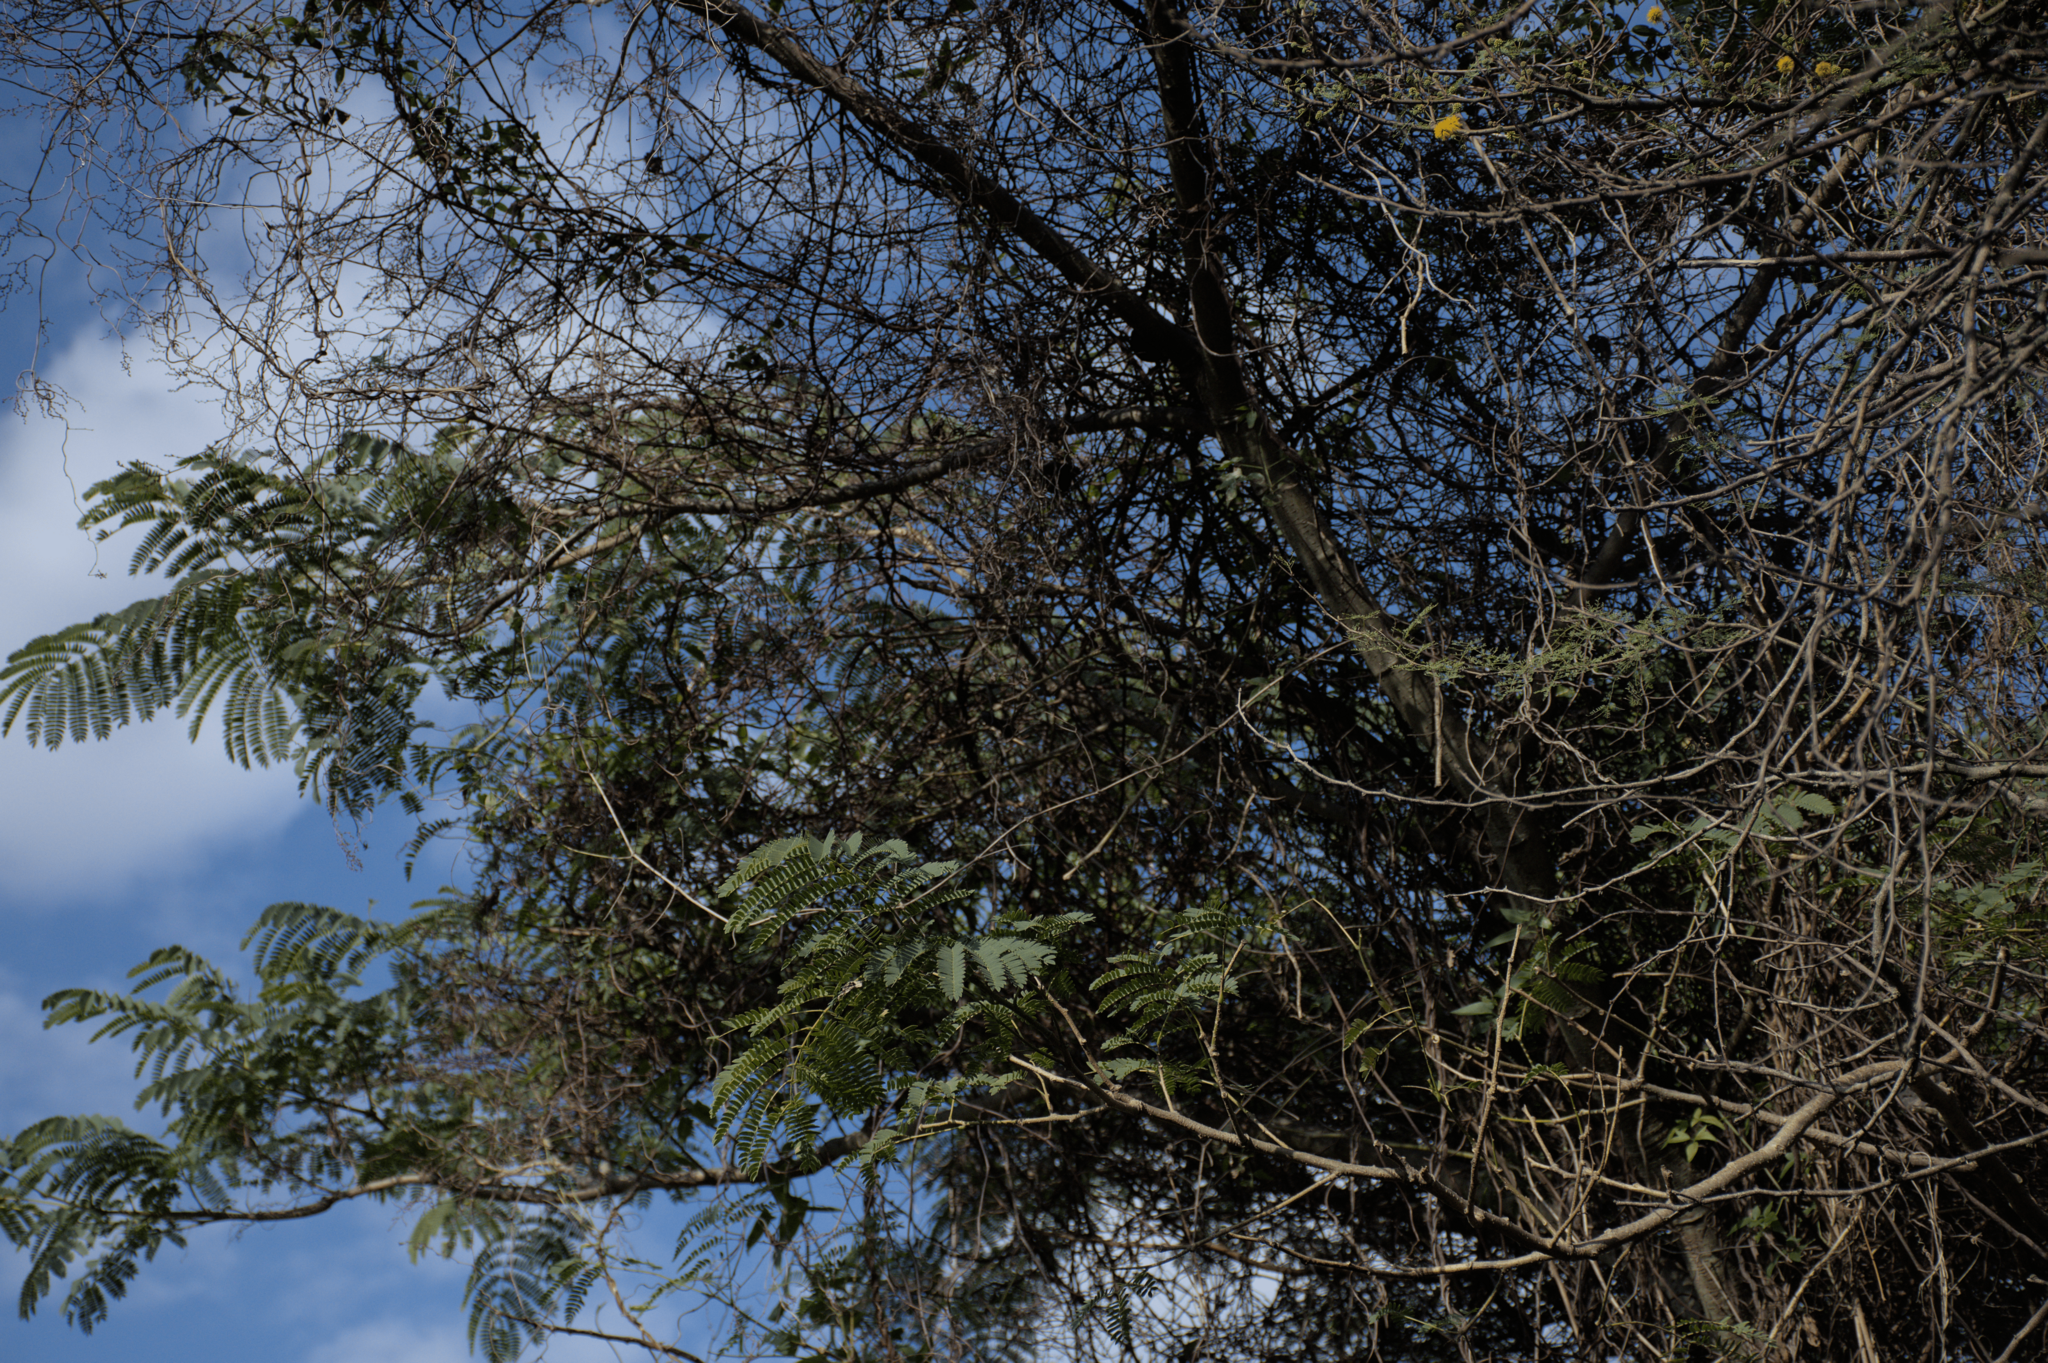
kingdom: Plantae
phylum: Tracheophyta
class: Magnoliopsida
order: Fabales
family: Fabaceae
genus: Enterolobium
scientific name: Enterolobium contortisiliquum
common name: Pacara earpod tree
